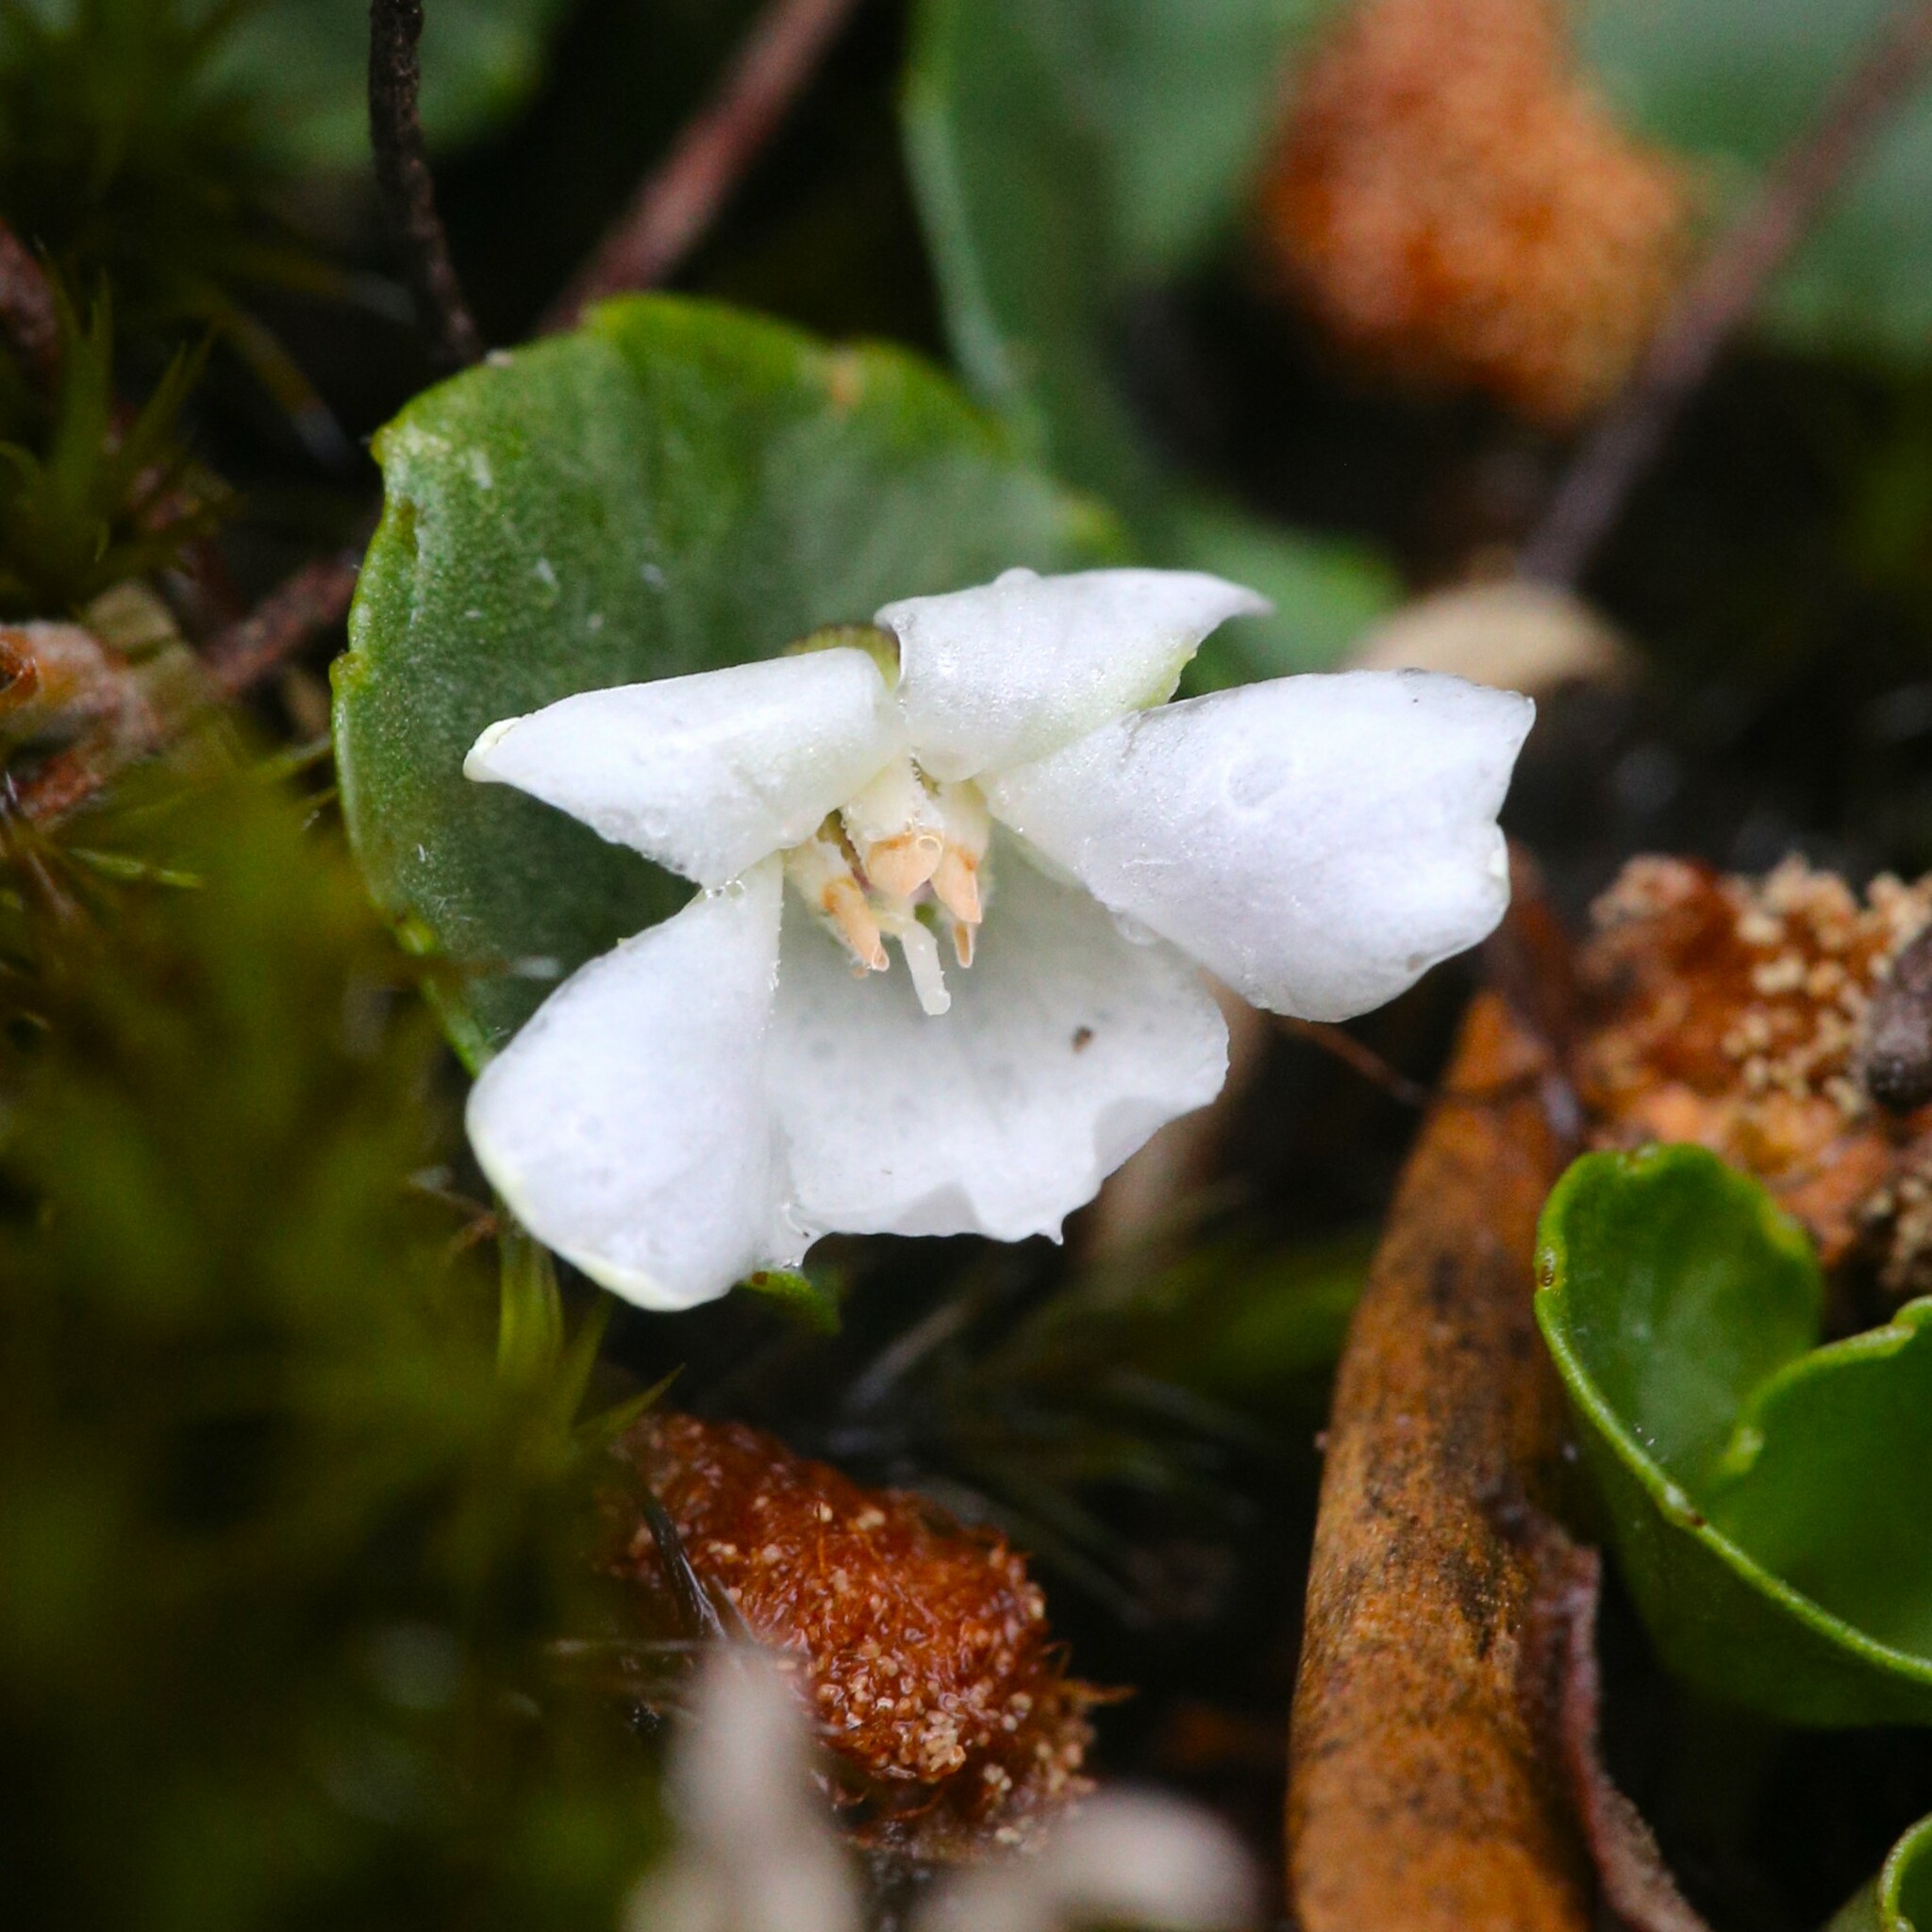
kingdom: Plantae
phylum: Tracheophyta
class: Magnoliopsida
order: Malpighiales
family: Violaceae
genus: Viola
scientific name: Viola curtisiae
